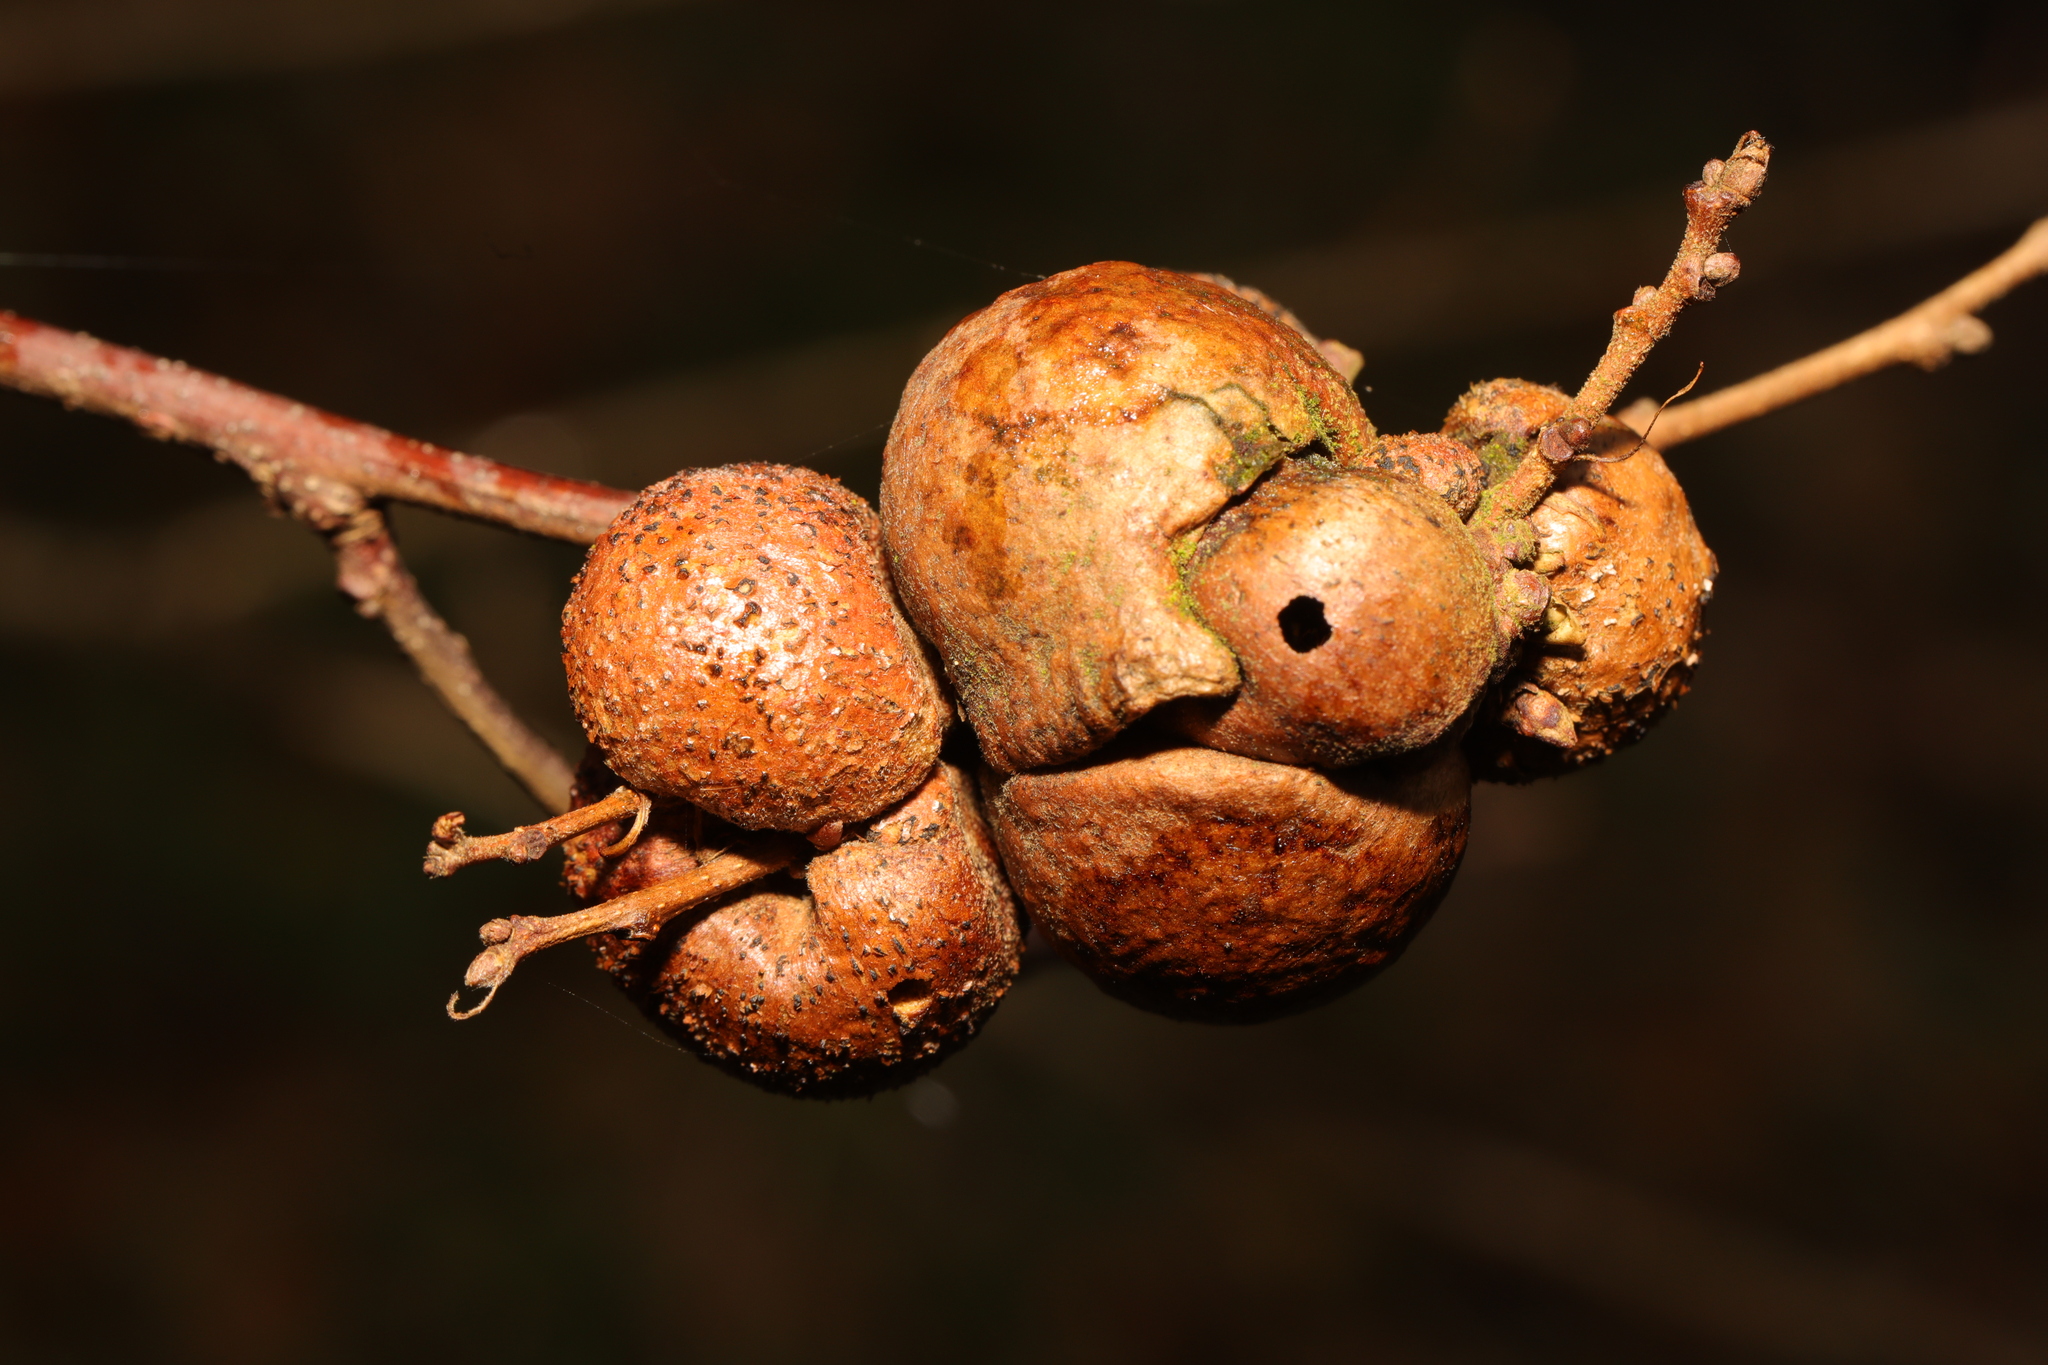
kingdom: Animalia
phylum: Arthropoda
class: Insecta
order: Hymenoptera
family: Cynipidae
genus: Aphelonyx
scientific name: Aphelonyx cerricola
